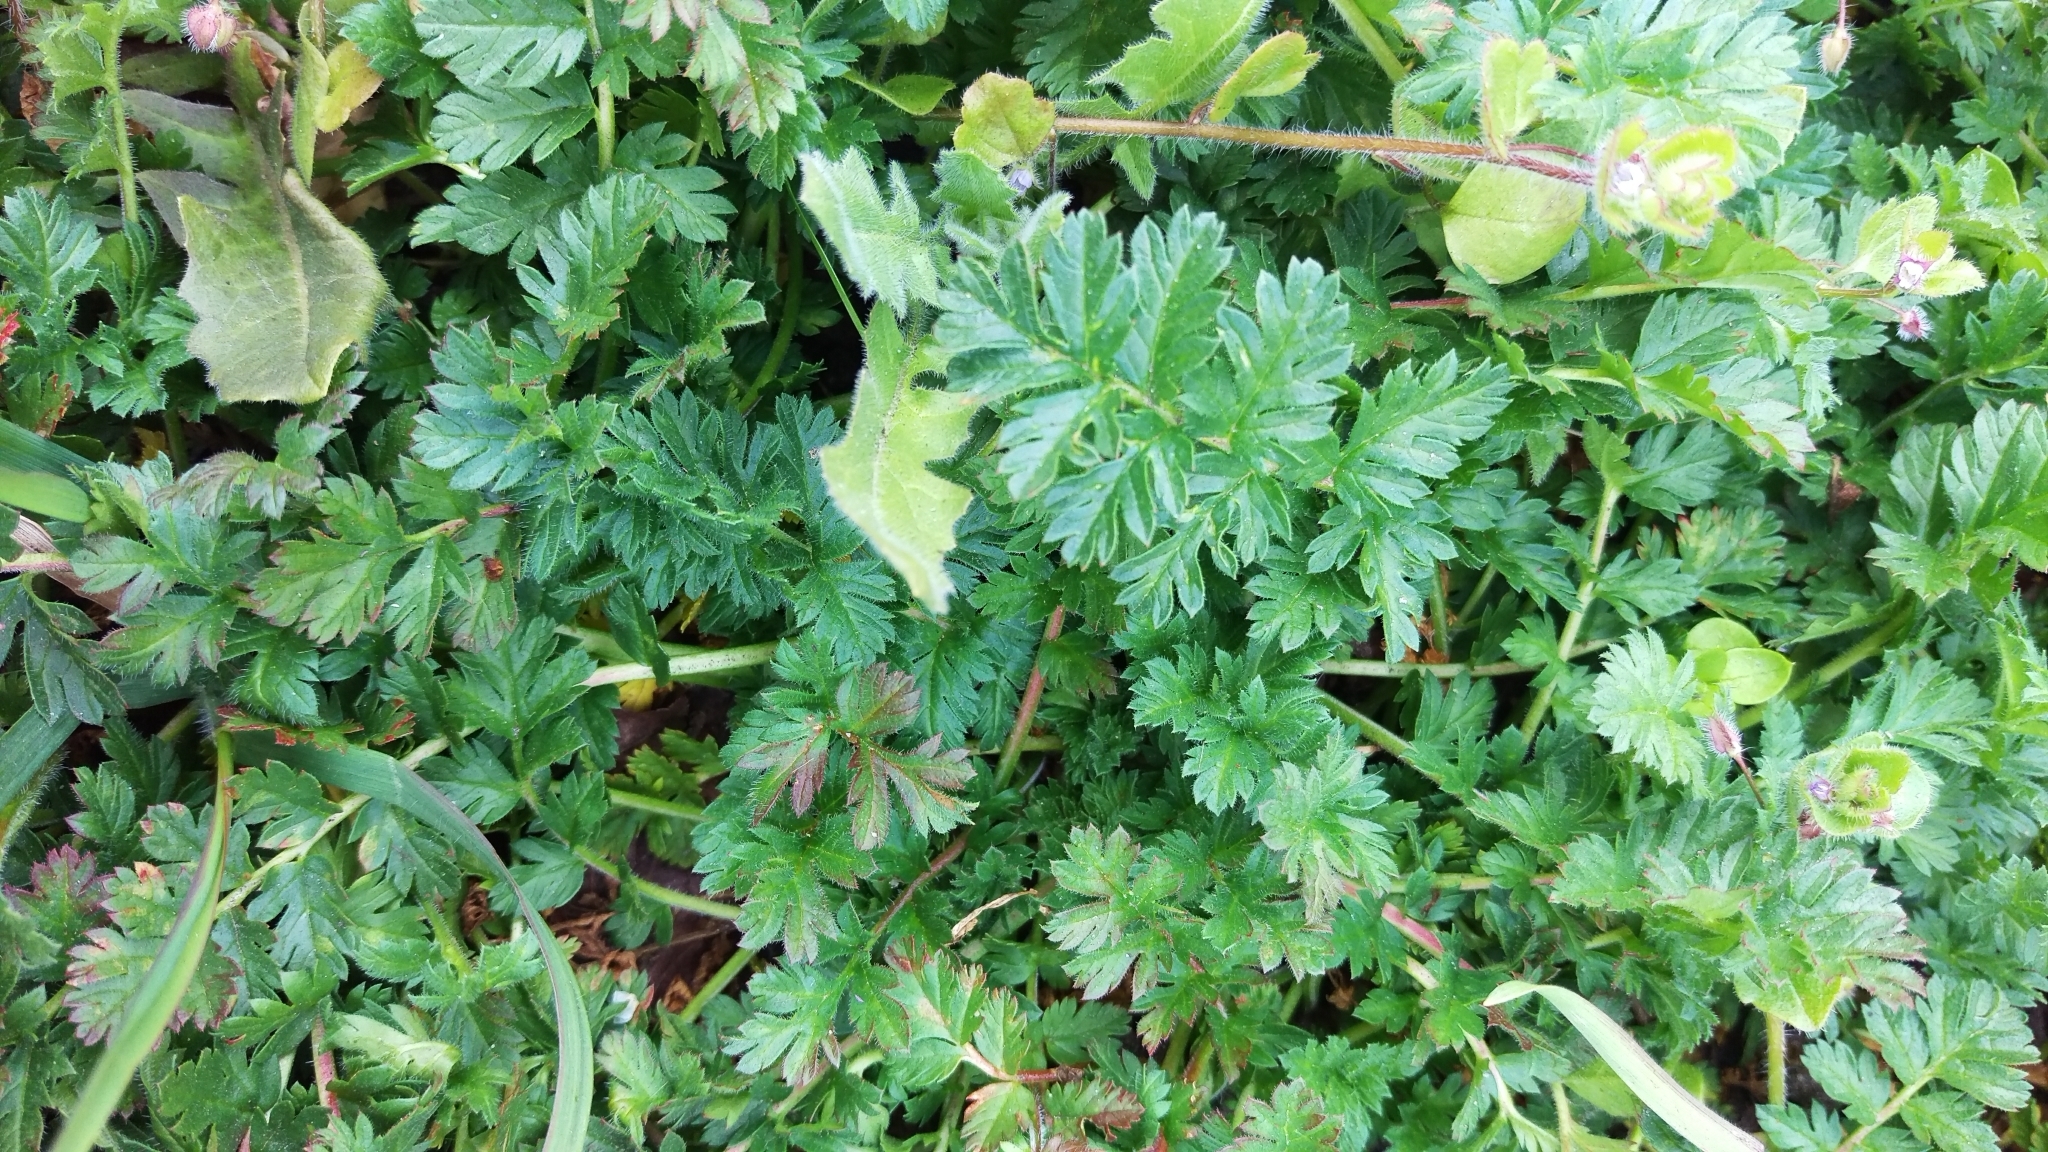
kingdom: Plantae
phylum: Tracheophyta
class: Magnoliopsida
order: Geraniales
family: Geraniaceae
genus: Erodium
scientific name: Erodium cicutarium
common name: Common stork's-bill
